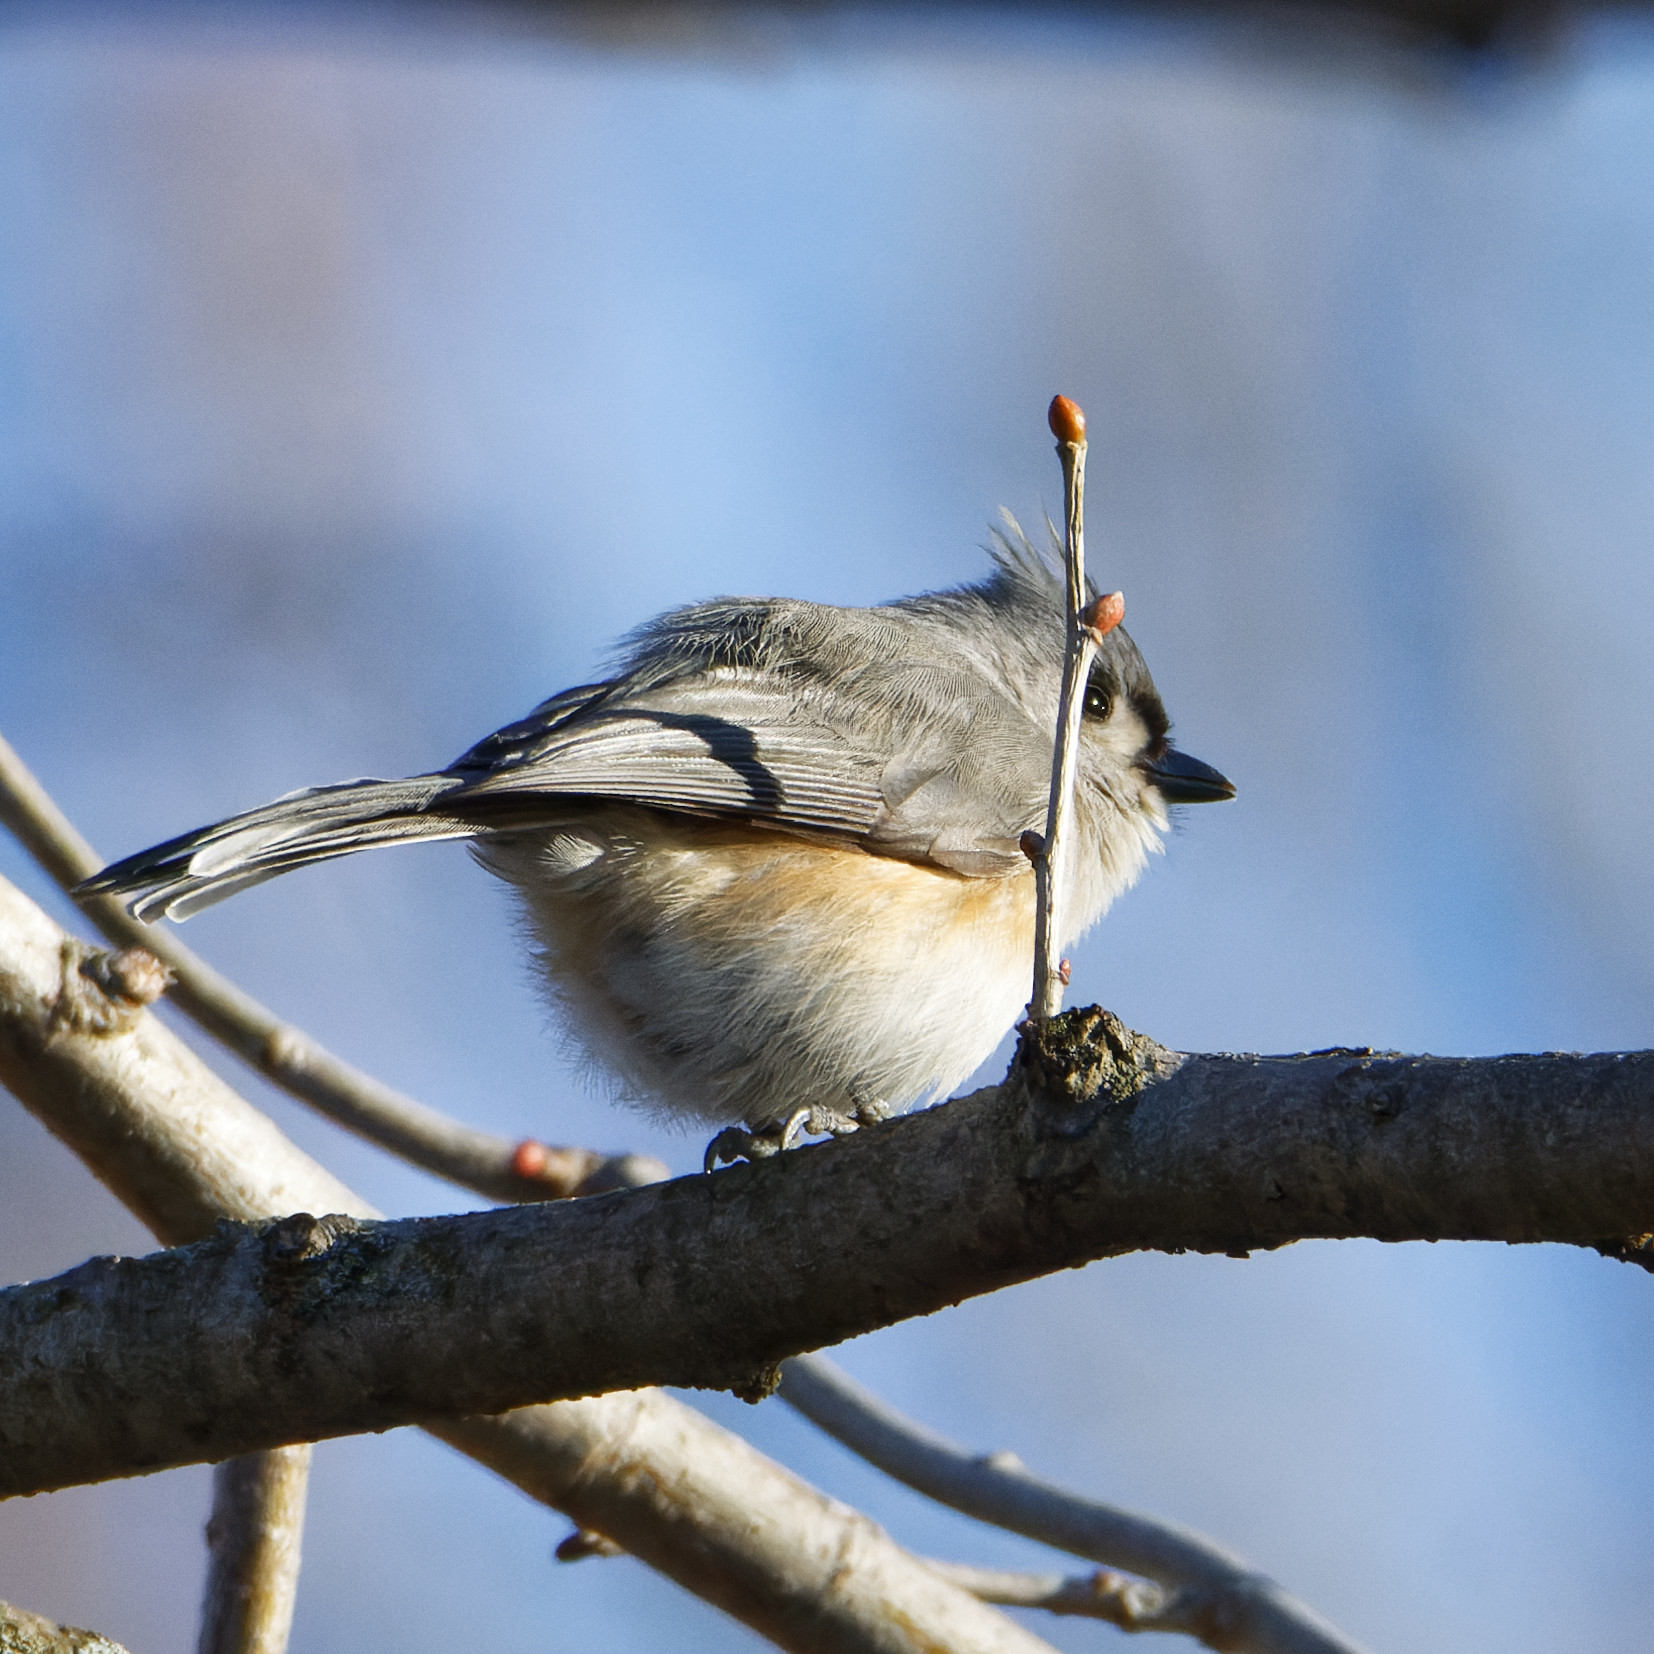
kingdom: Animalia
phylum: Chordata
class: Aves
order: Passeriformes
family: Paridae
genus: Baeolophus
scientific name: Baeolophus bicolor
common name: Tufted titmouse
